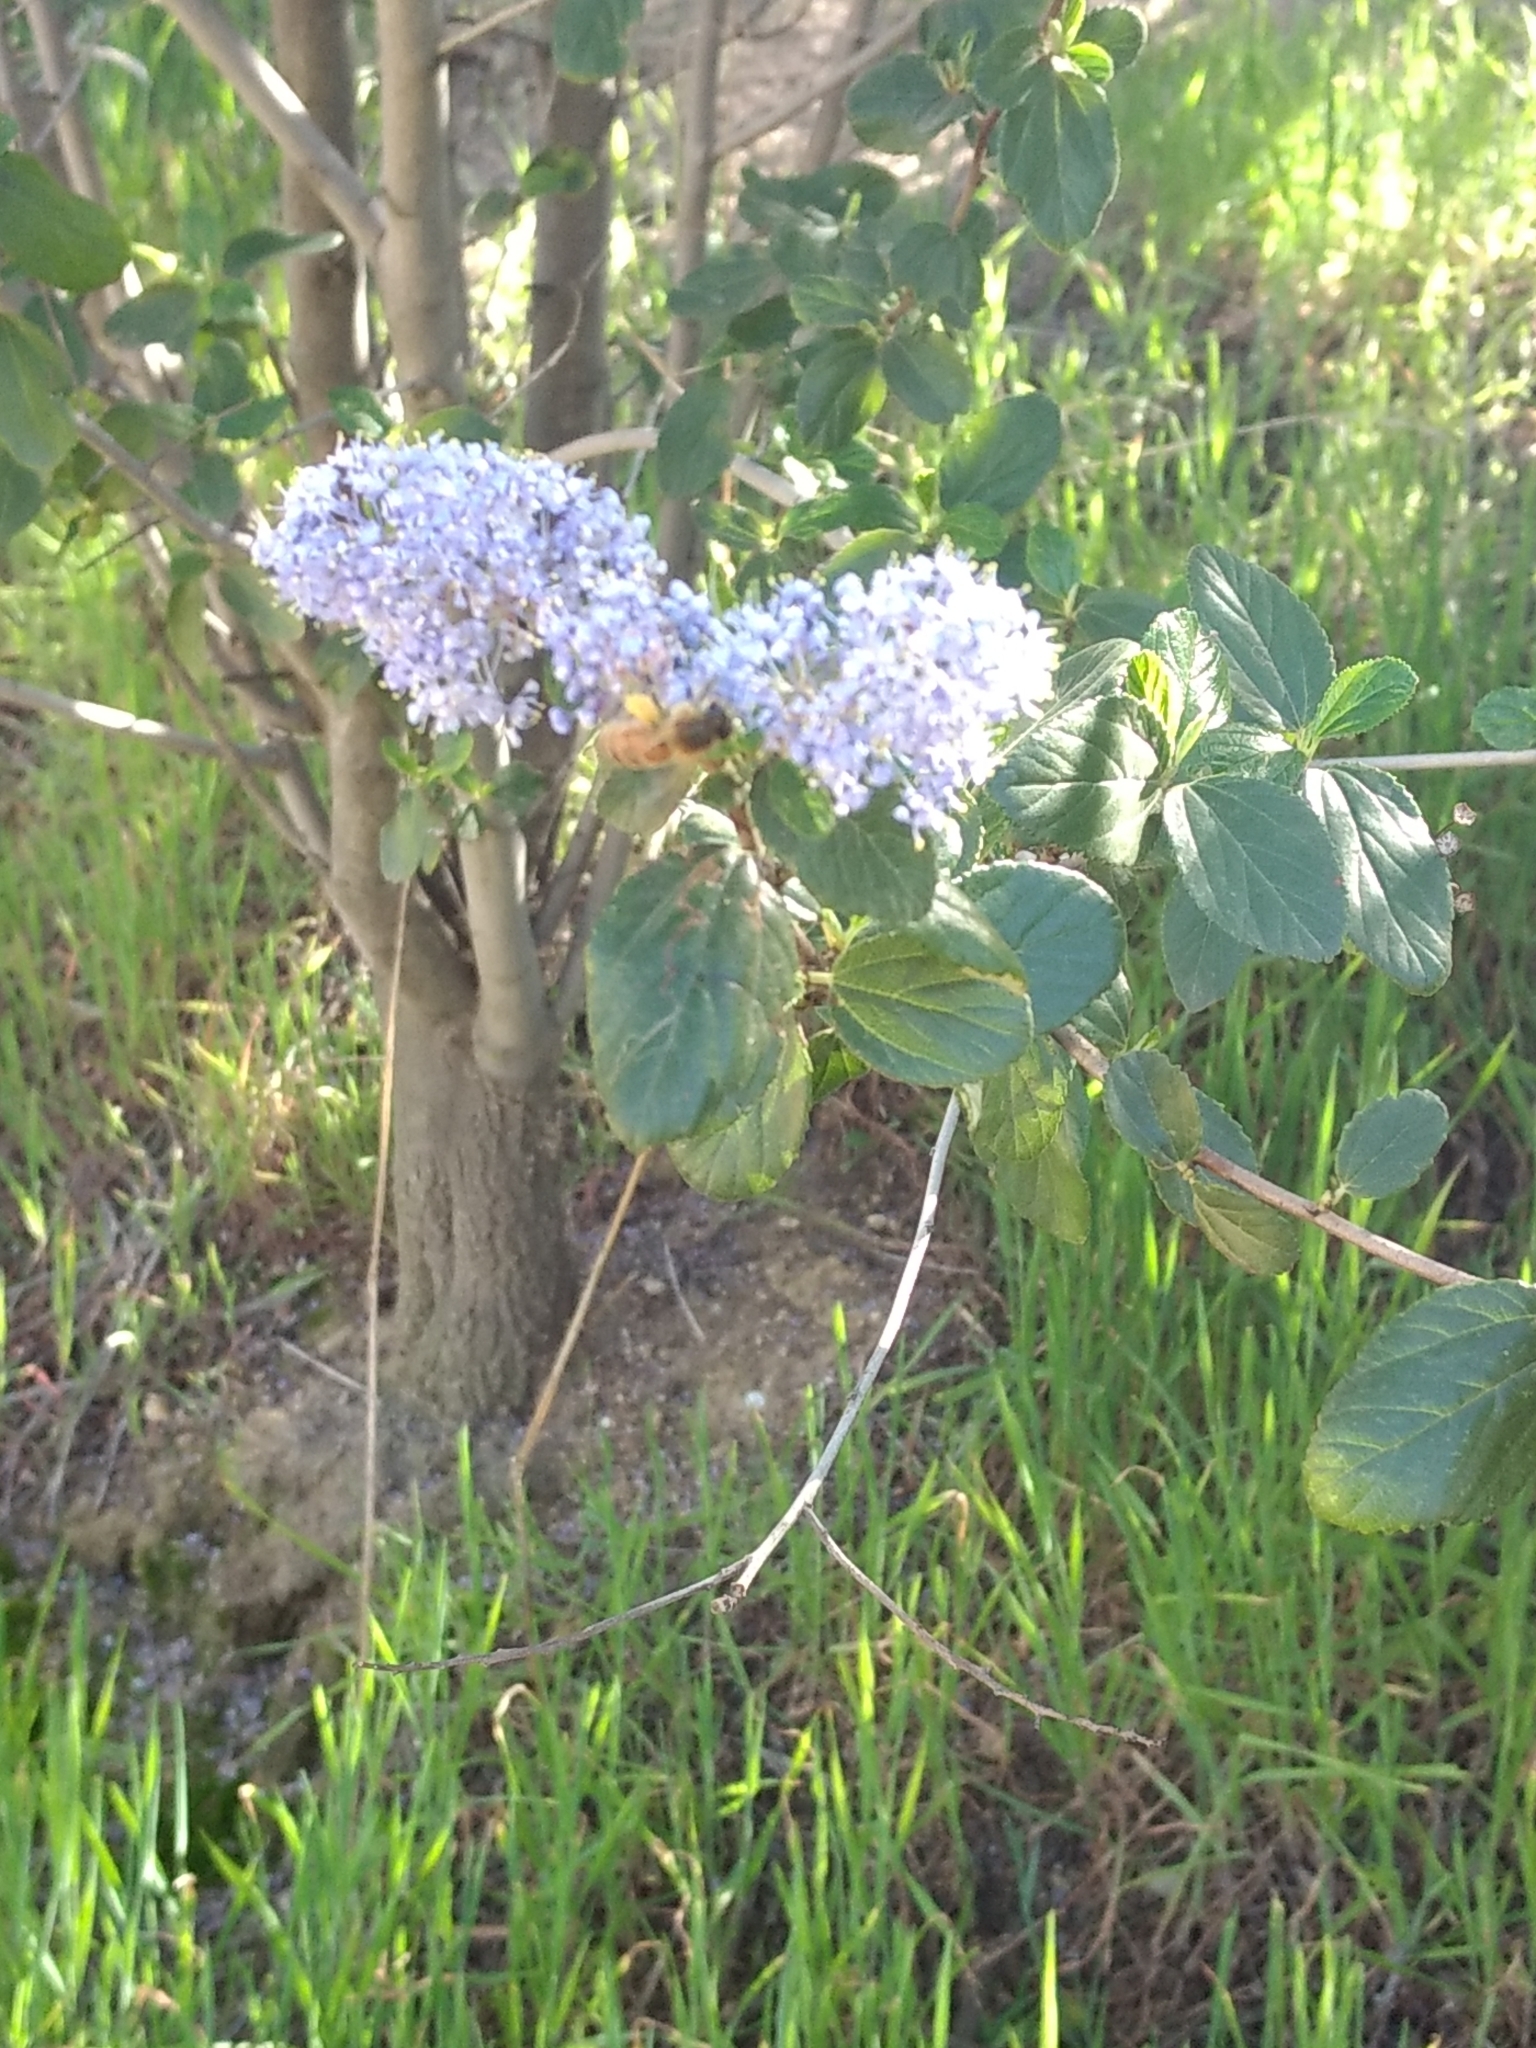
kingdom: Animalia
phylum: Arthropoda
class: Insecta
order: Hymenoptera
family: Apidae
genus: Apis
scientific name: Apis mellifera
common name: Honey bee
